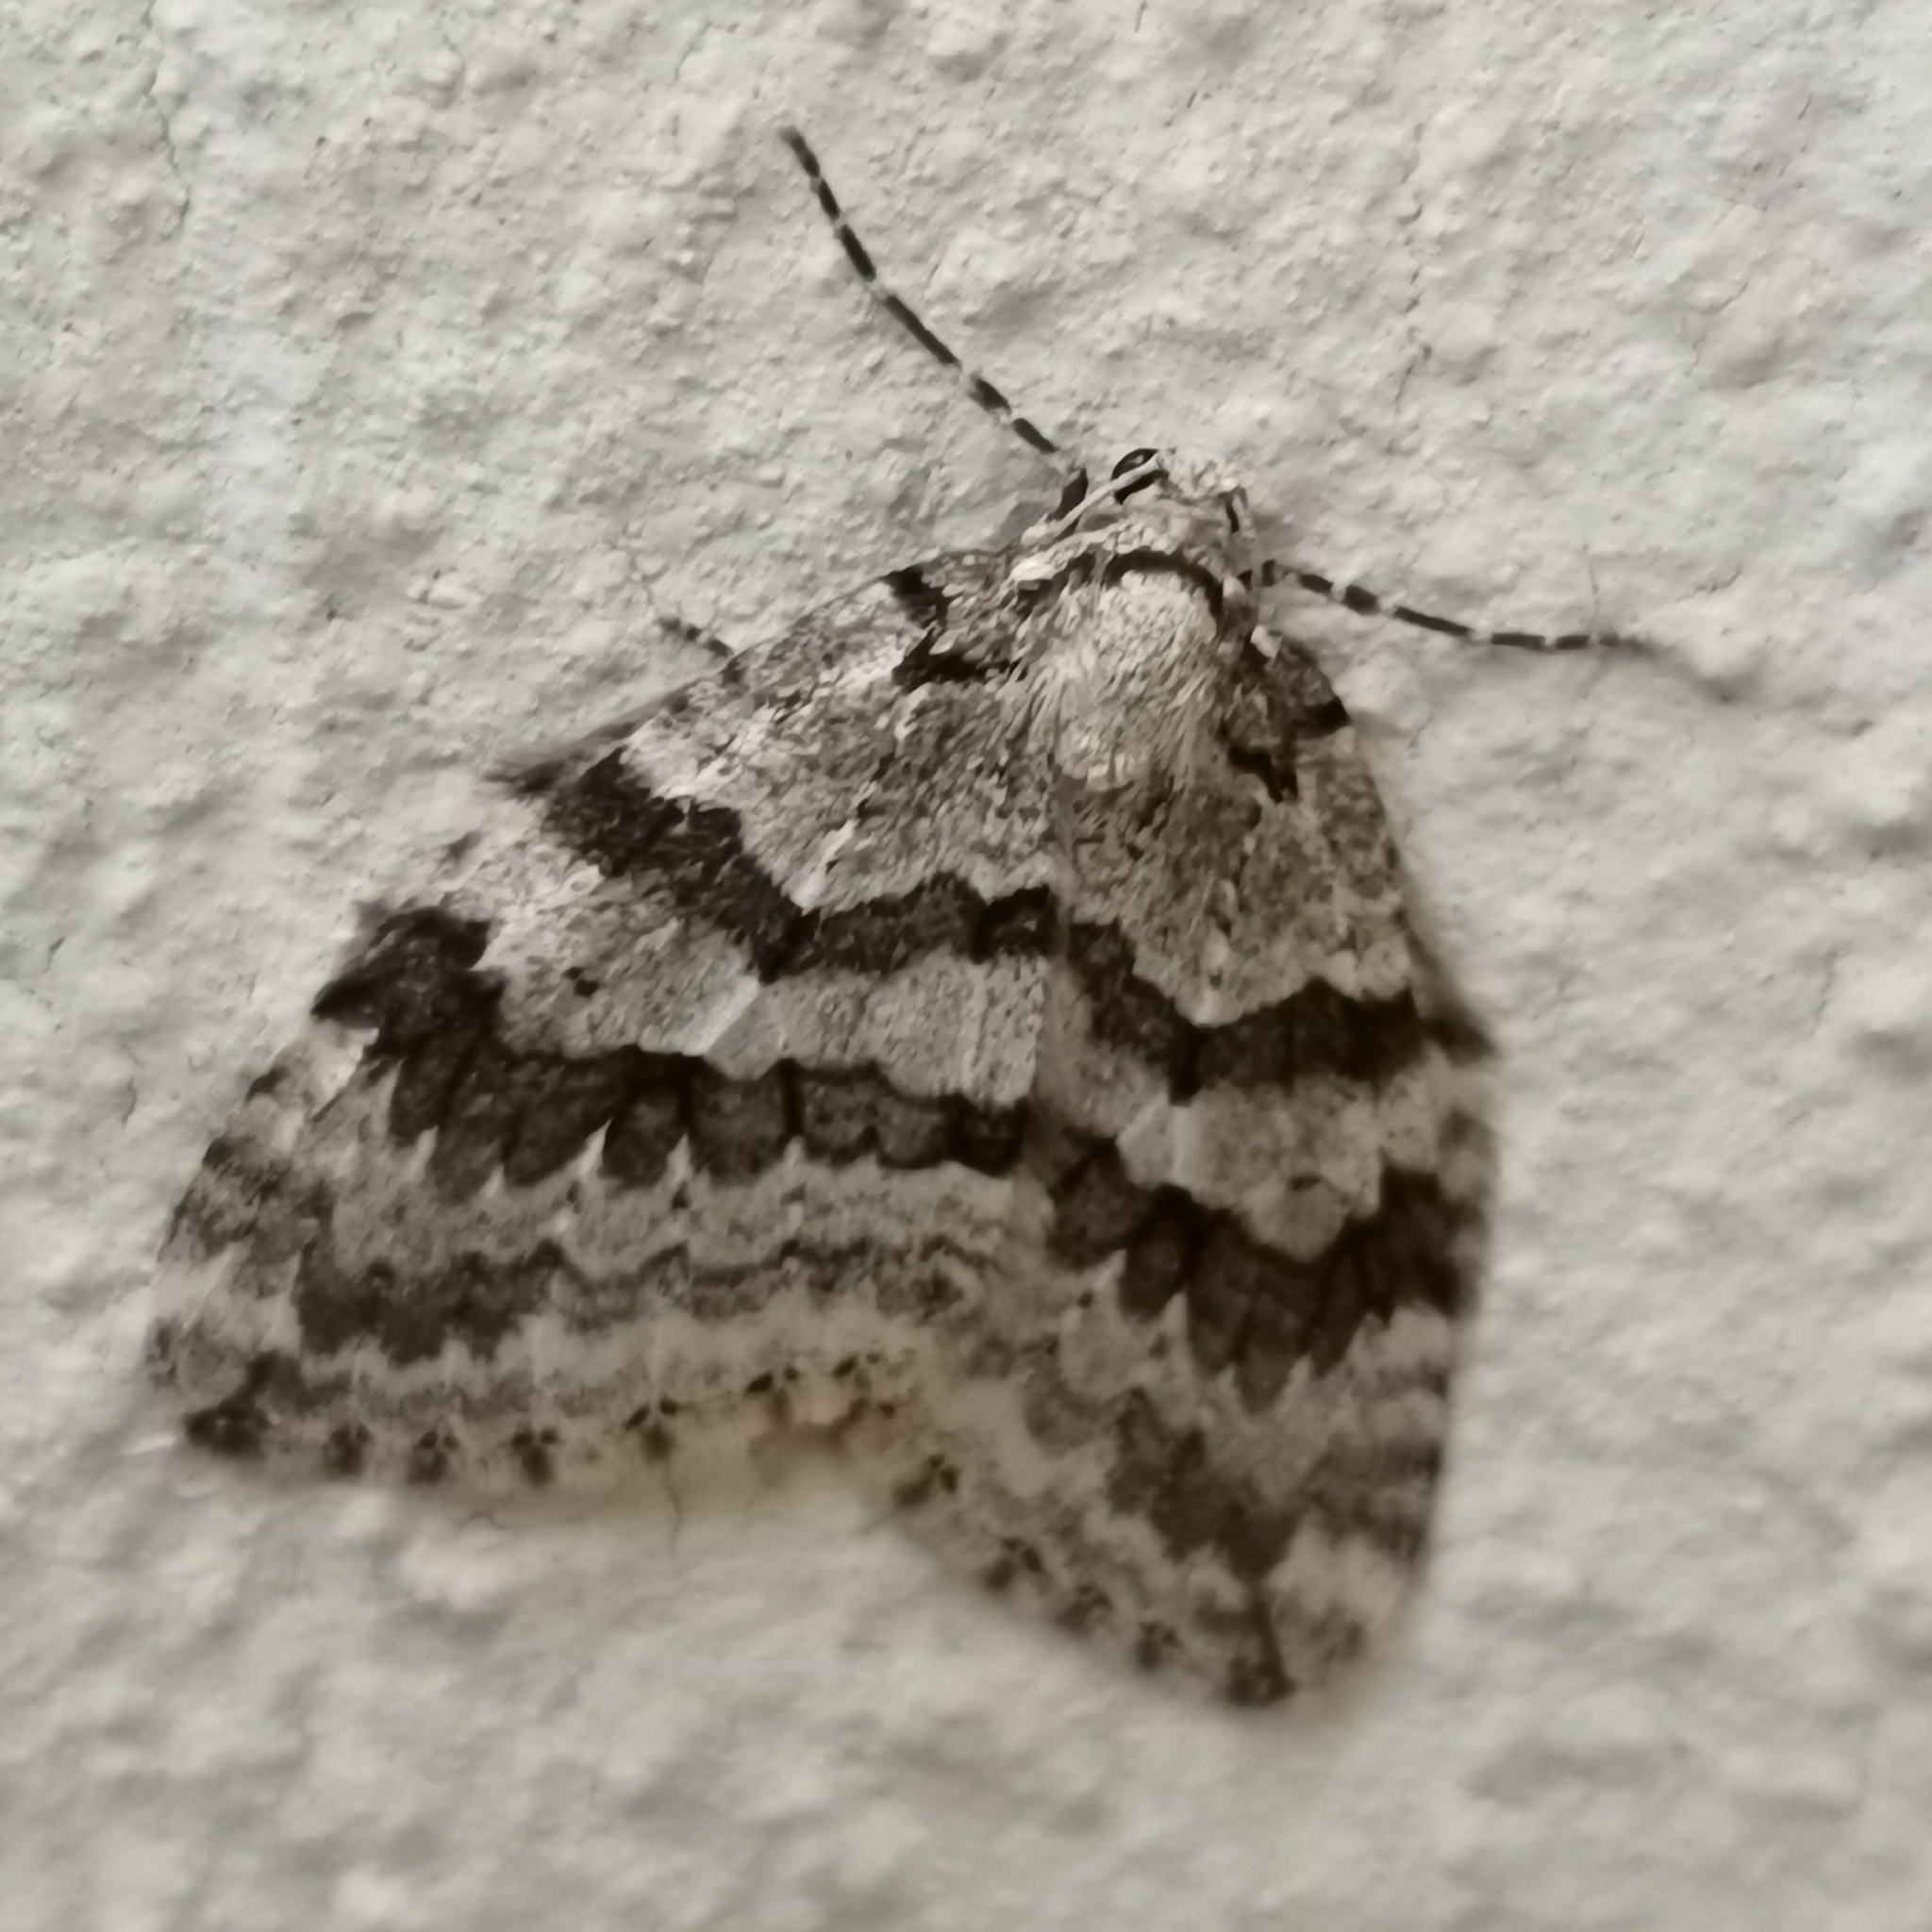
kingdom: Animalia
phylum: Arthropoda
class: Insecta
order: Lepidoptera
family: Geometridae
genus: Epirrita
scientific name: Epirrita autumnata
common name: Autumnal moth
